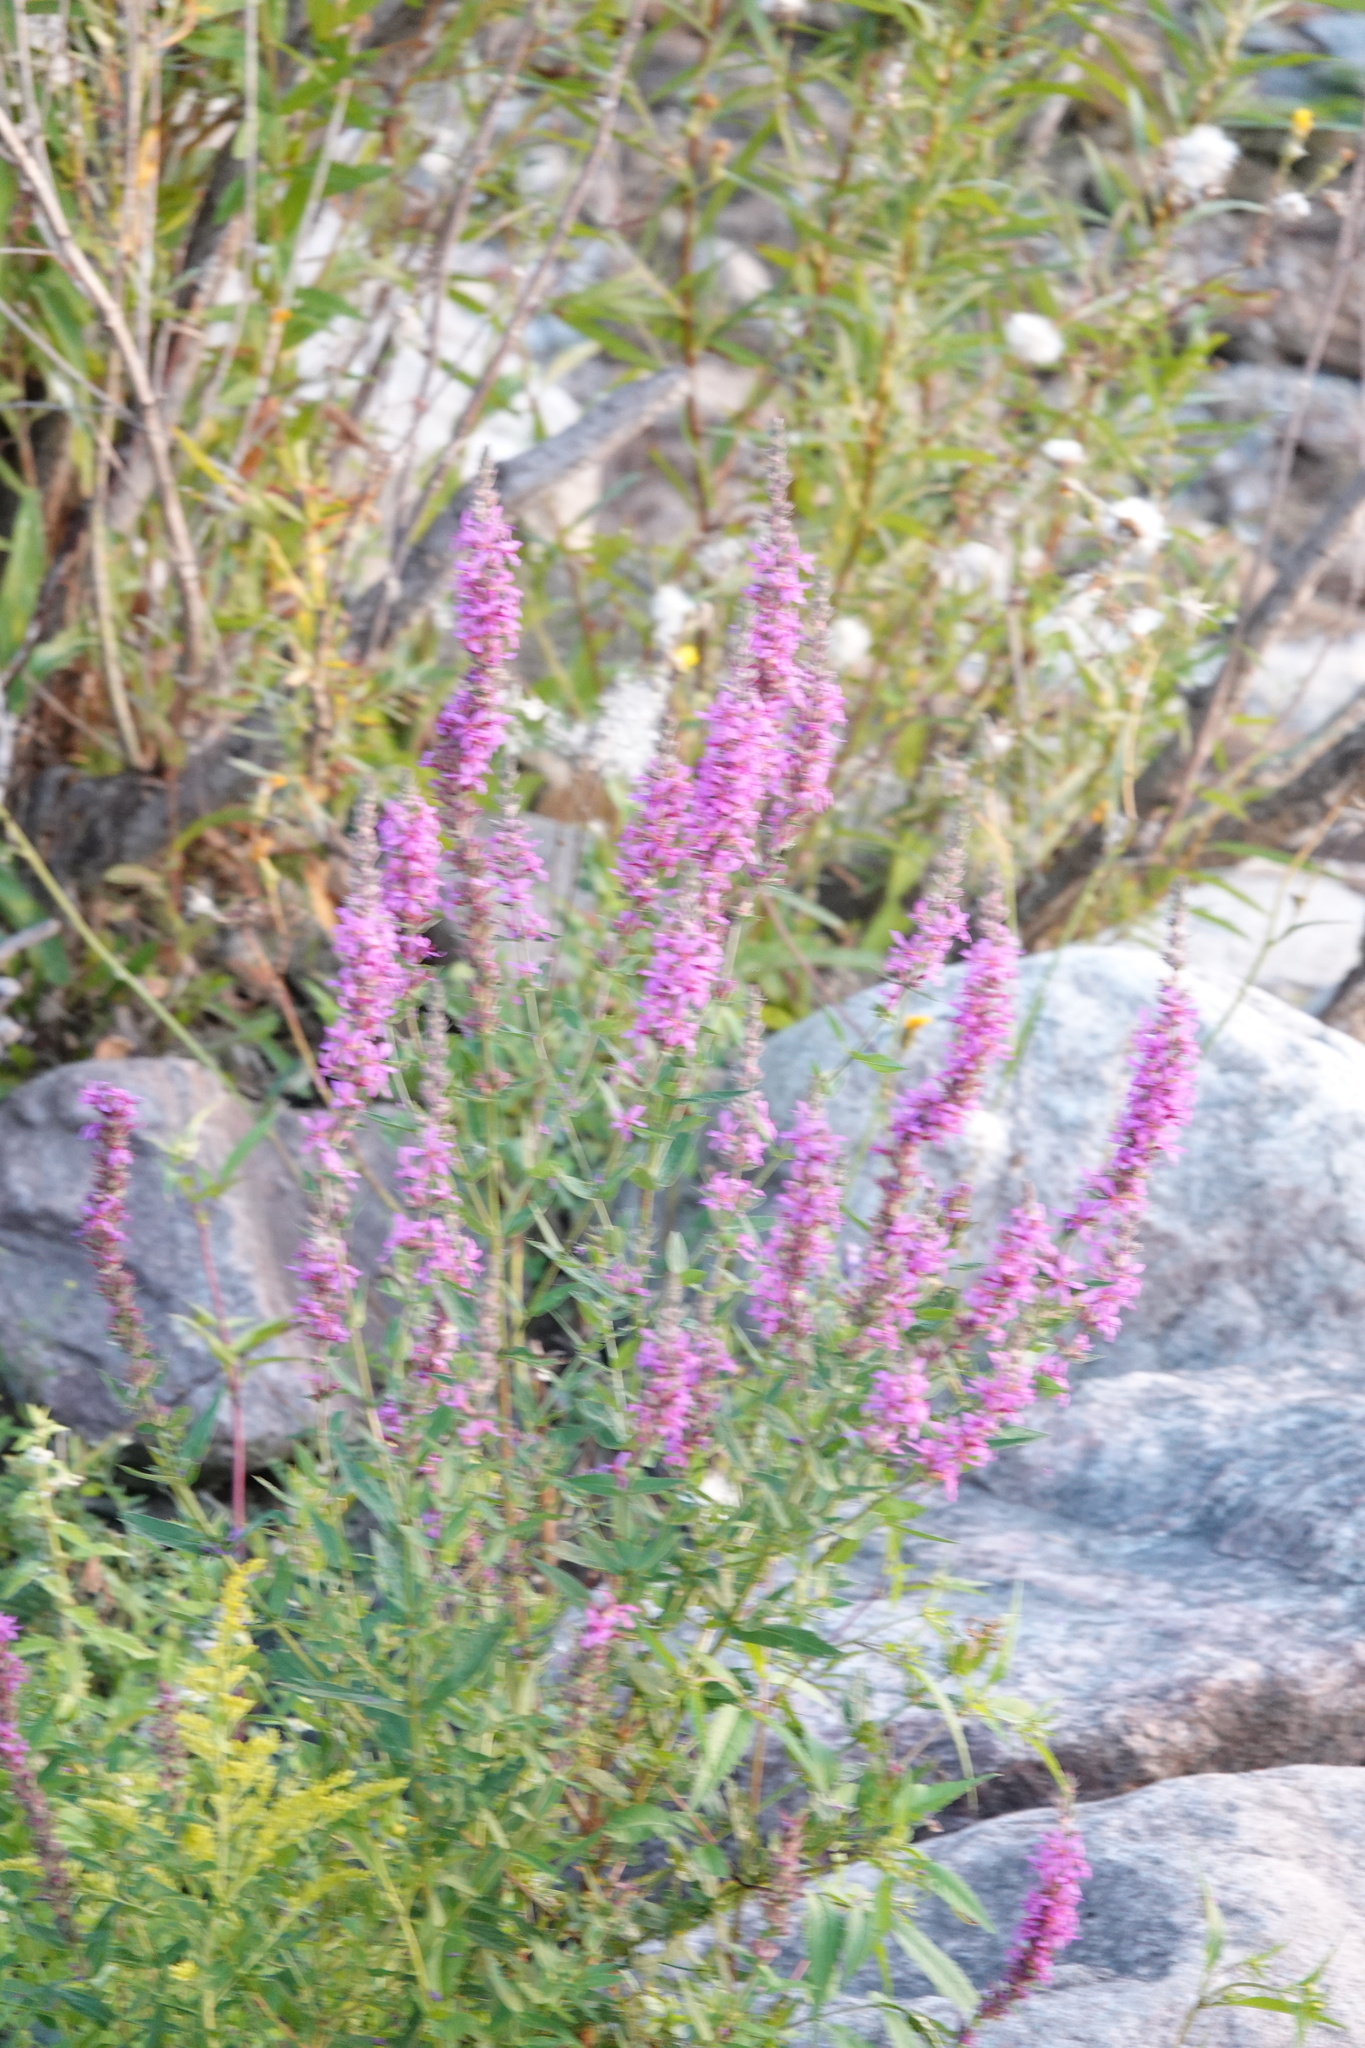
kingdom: Plantae
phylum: Tracheophyta
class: Magnoliopsida
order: Myrtales
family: Lythraceae
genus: Lythrum
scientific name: Lythrum salicaria
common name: Purple loosestrife
